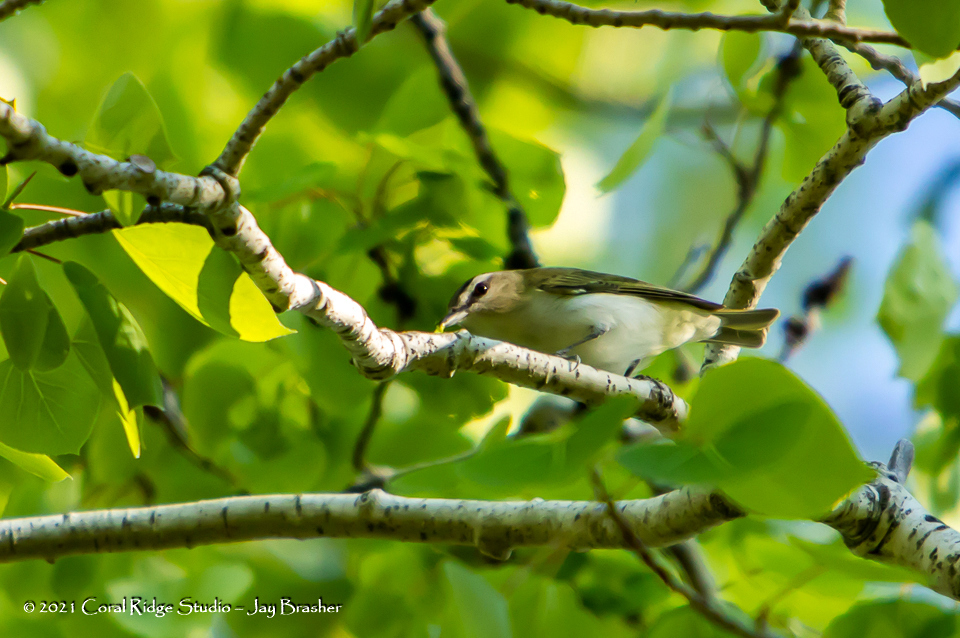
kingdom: Animalia
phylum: Chordata
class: Aves
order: Passeriformes
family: Vireonidae
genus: Vireo
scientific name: Vireo olivaceus
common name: Red-eyed vireo
